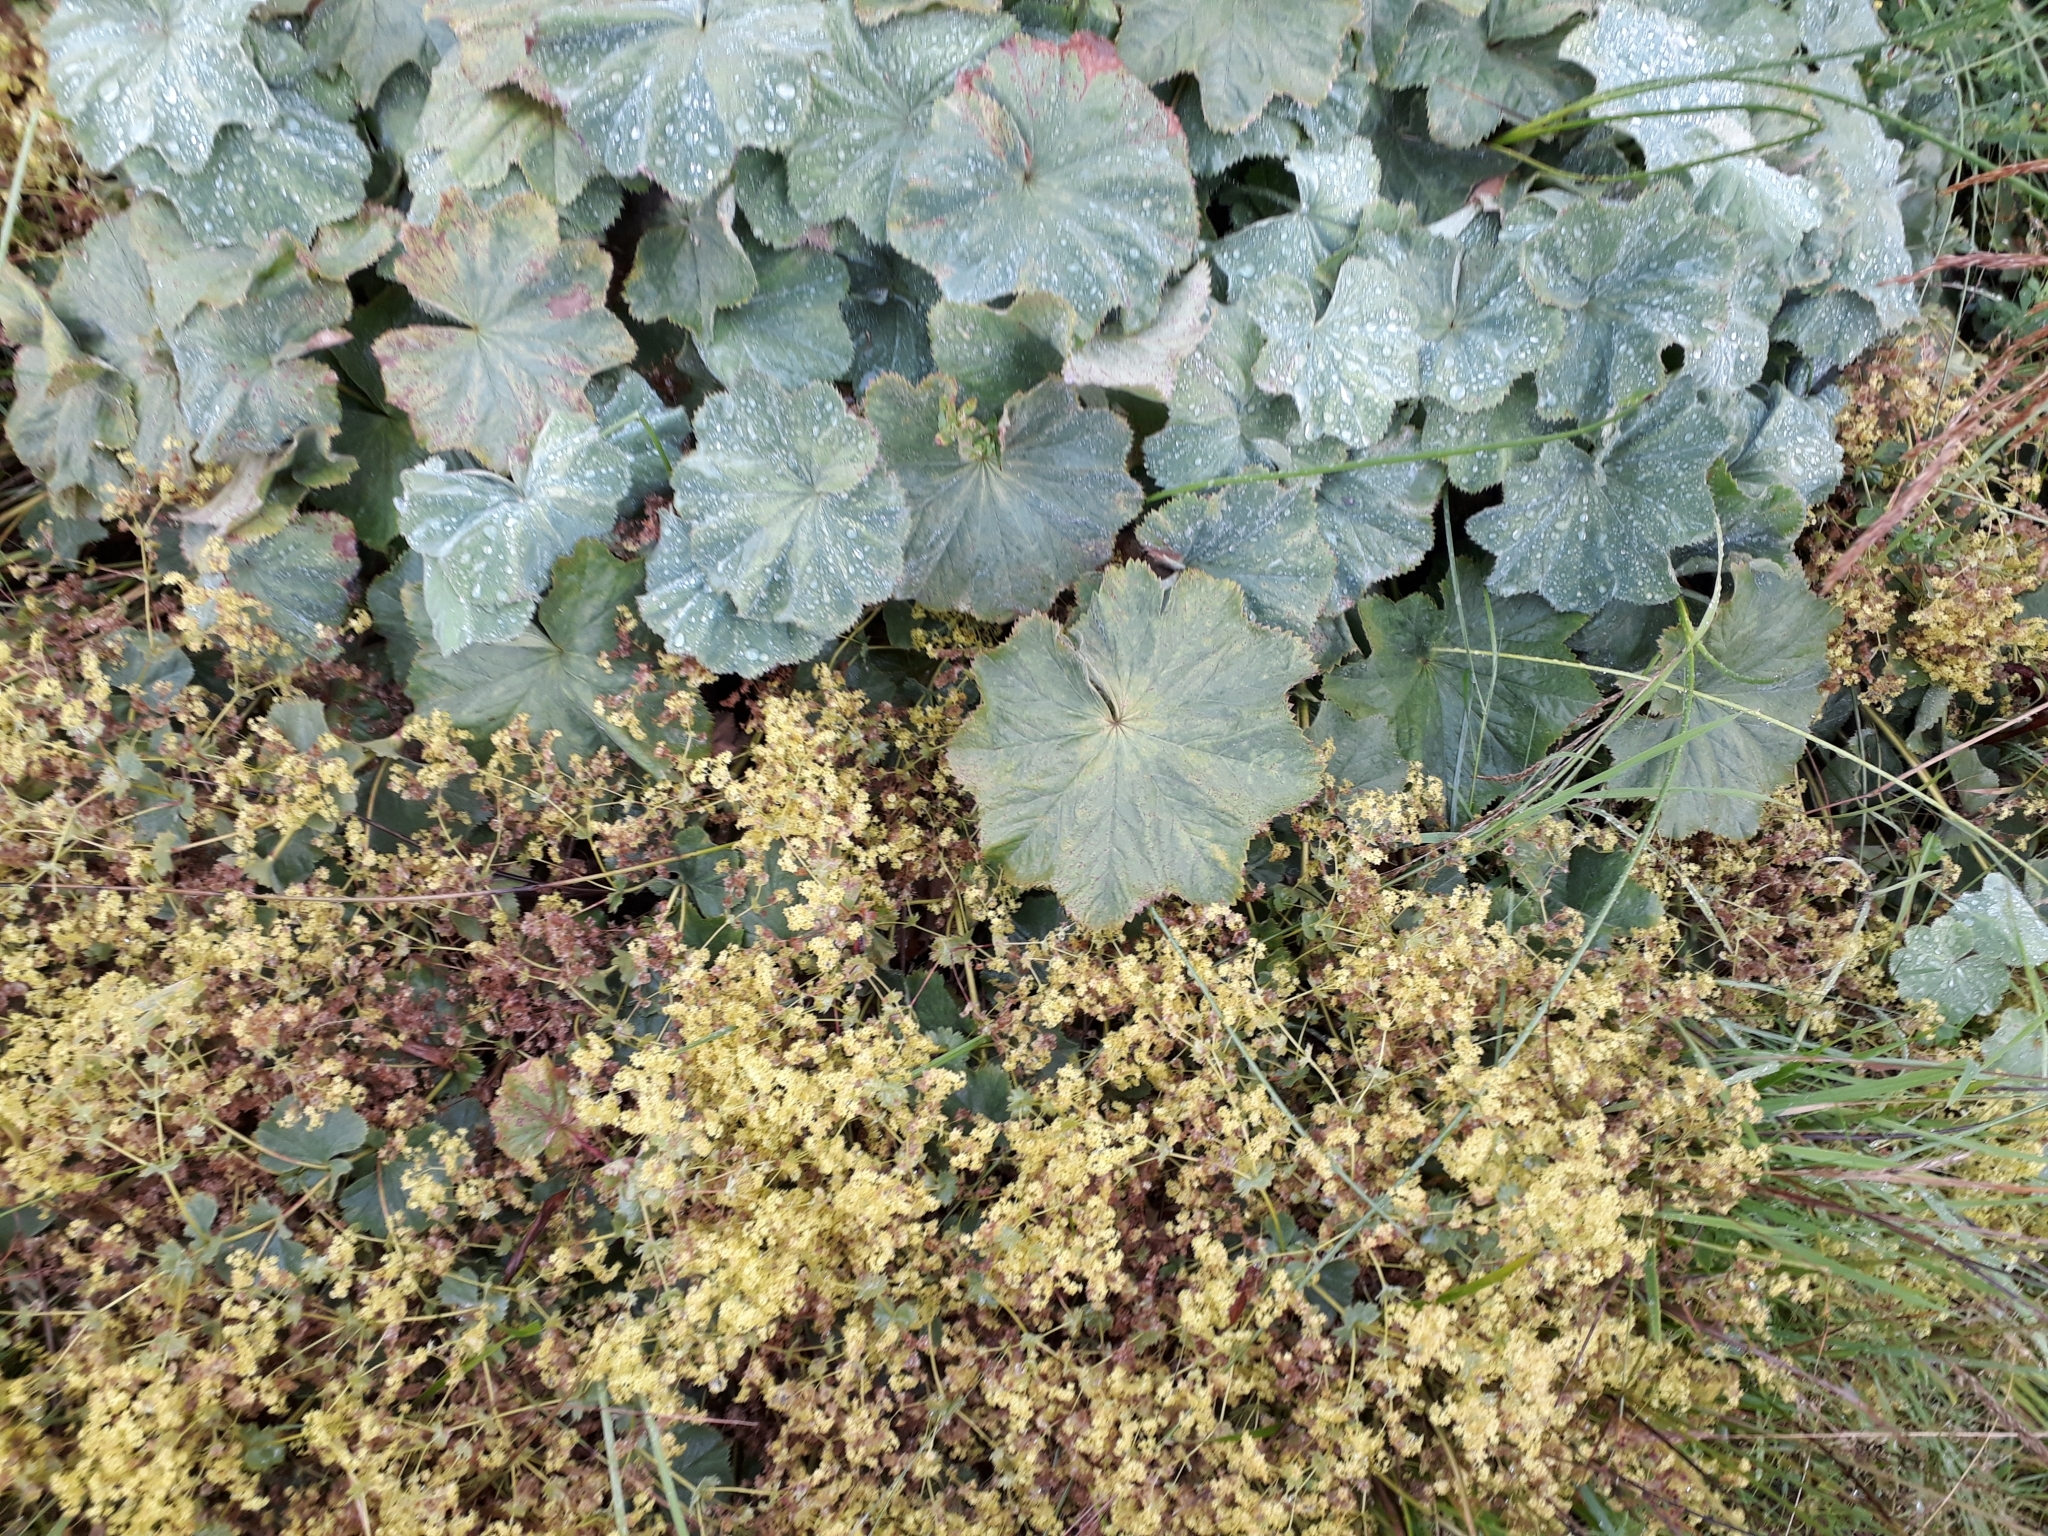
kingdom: Plantae
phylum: Tracheophyta
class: Magnoliopsida
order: Rosales
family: Rosaceae
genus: Alchemilla
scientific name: Alchemilla mollis
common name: Lady's-mantle
